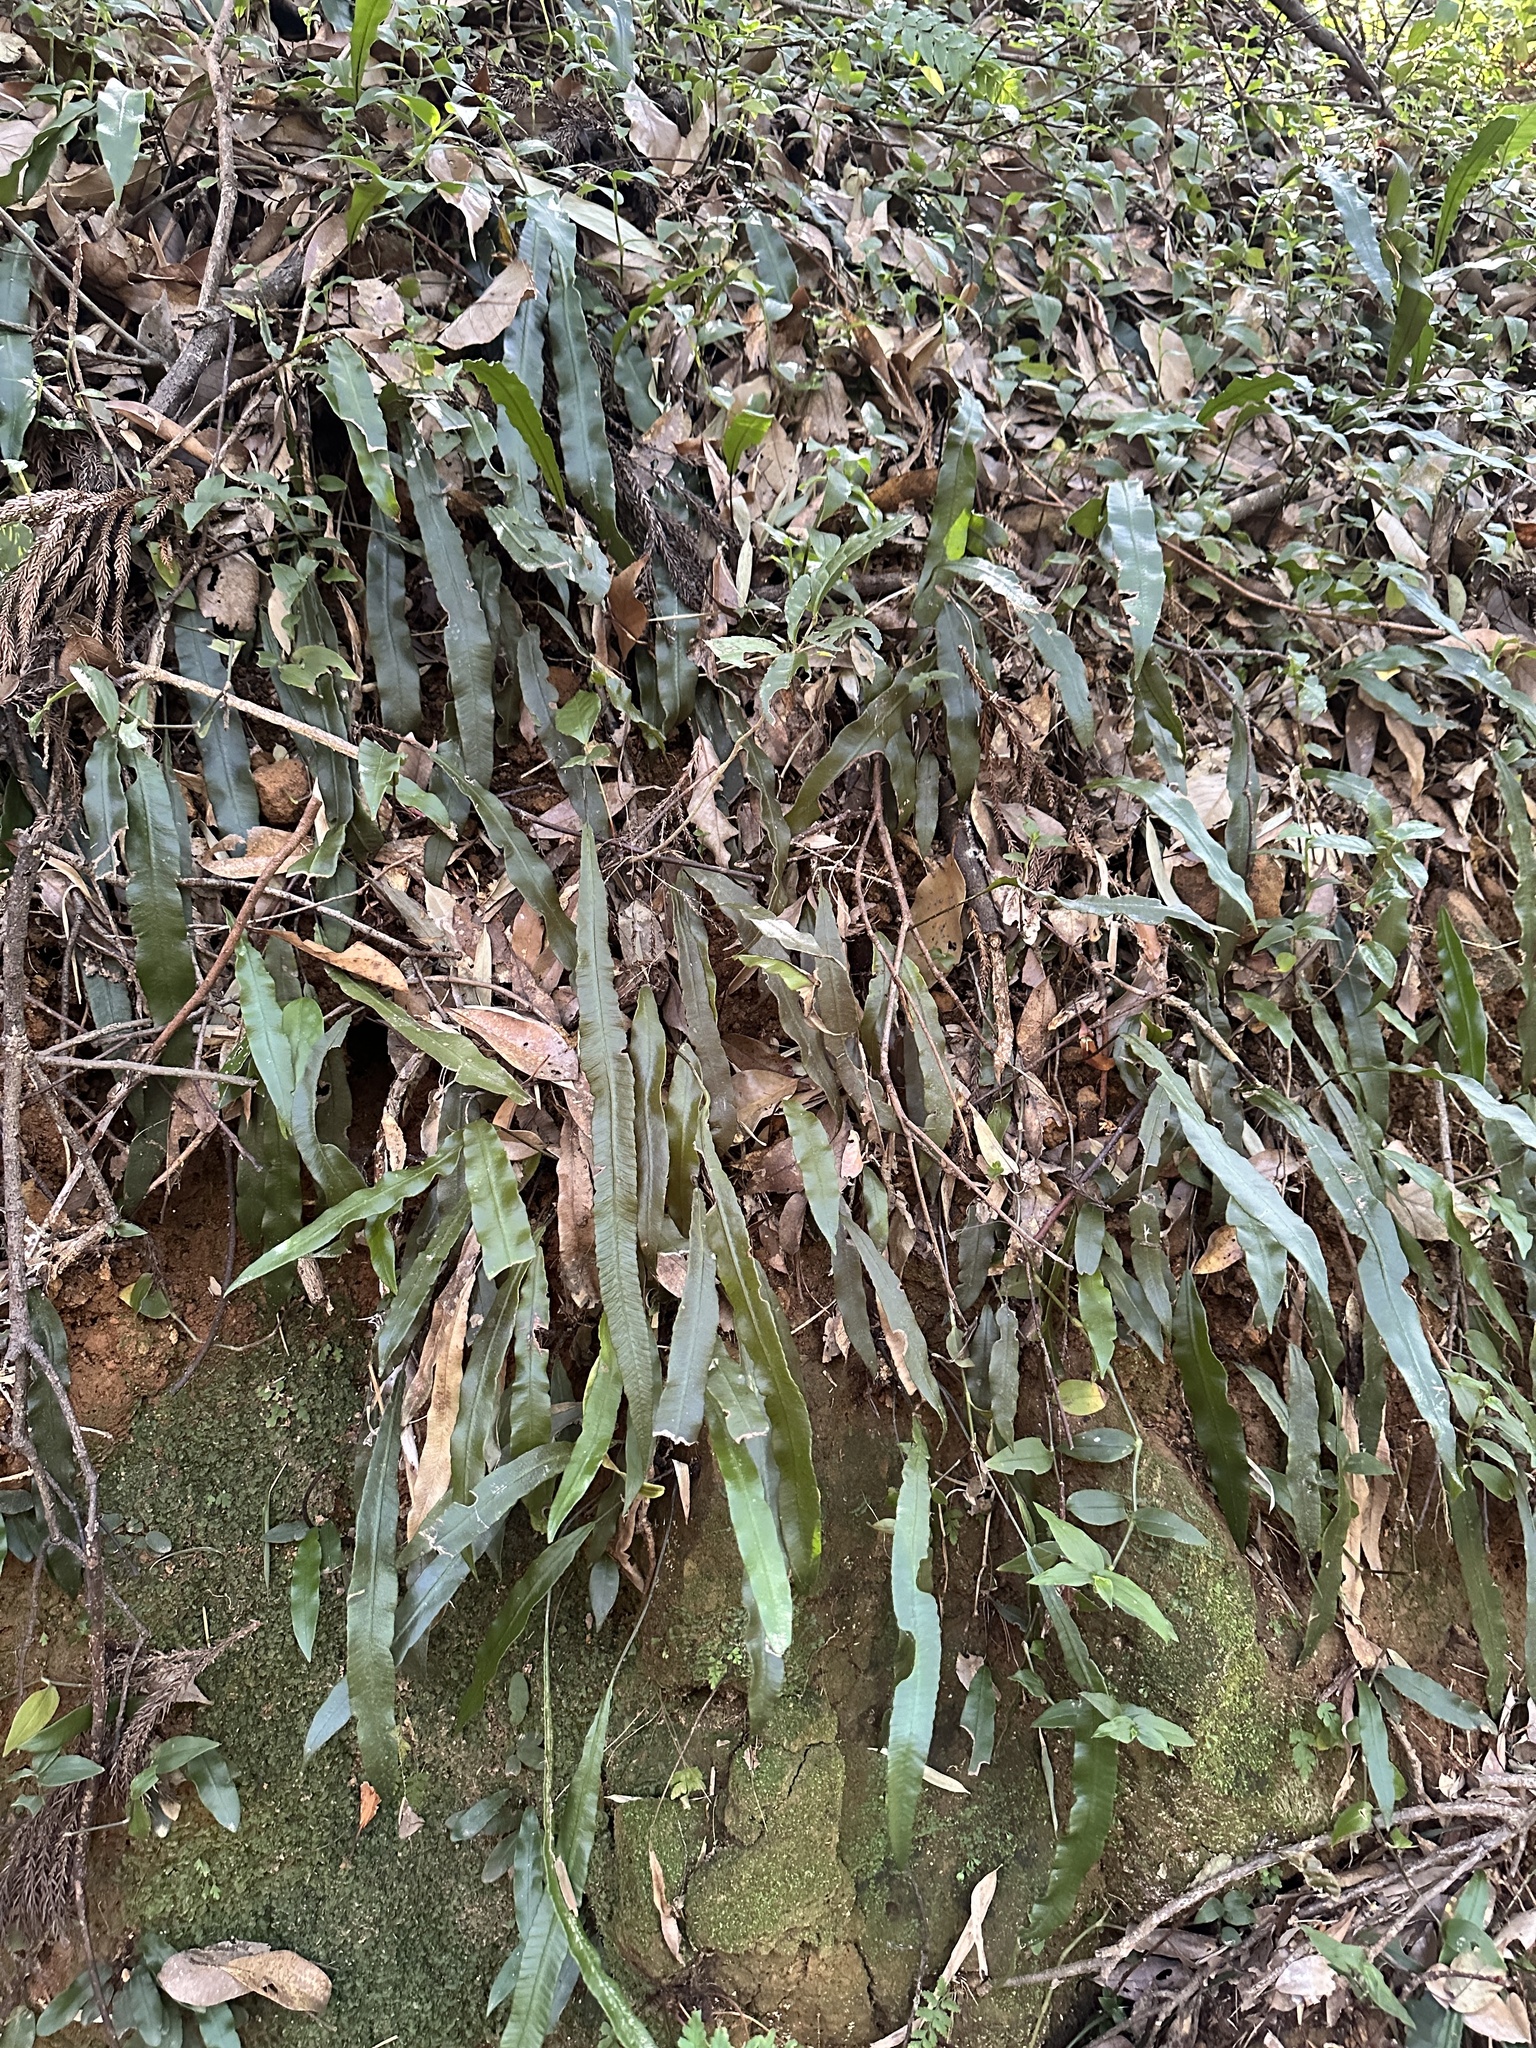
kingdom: Plantae
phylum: Tracheophyta
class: Polypodiopsida
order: Polypodiales
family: Athyriaceae
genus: Deparia
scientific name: Deparia lancea
